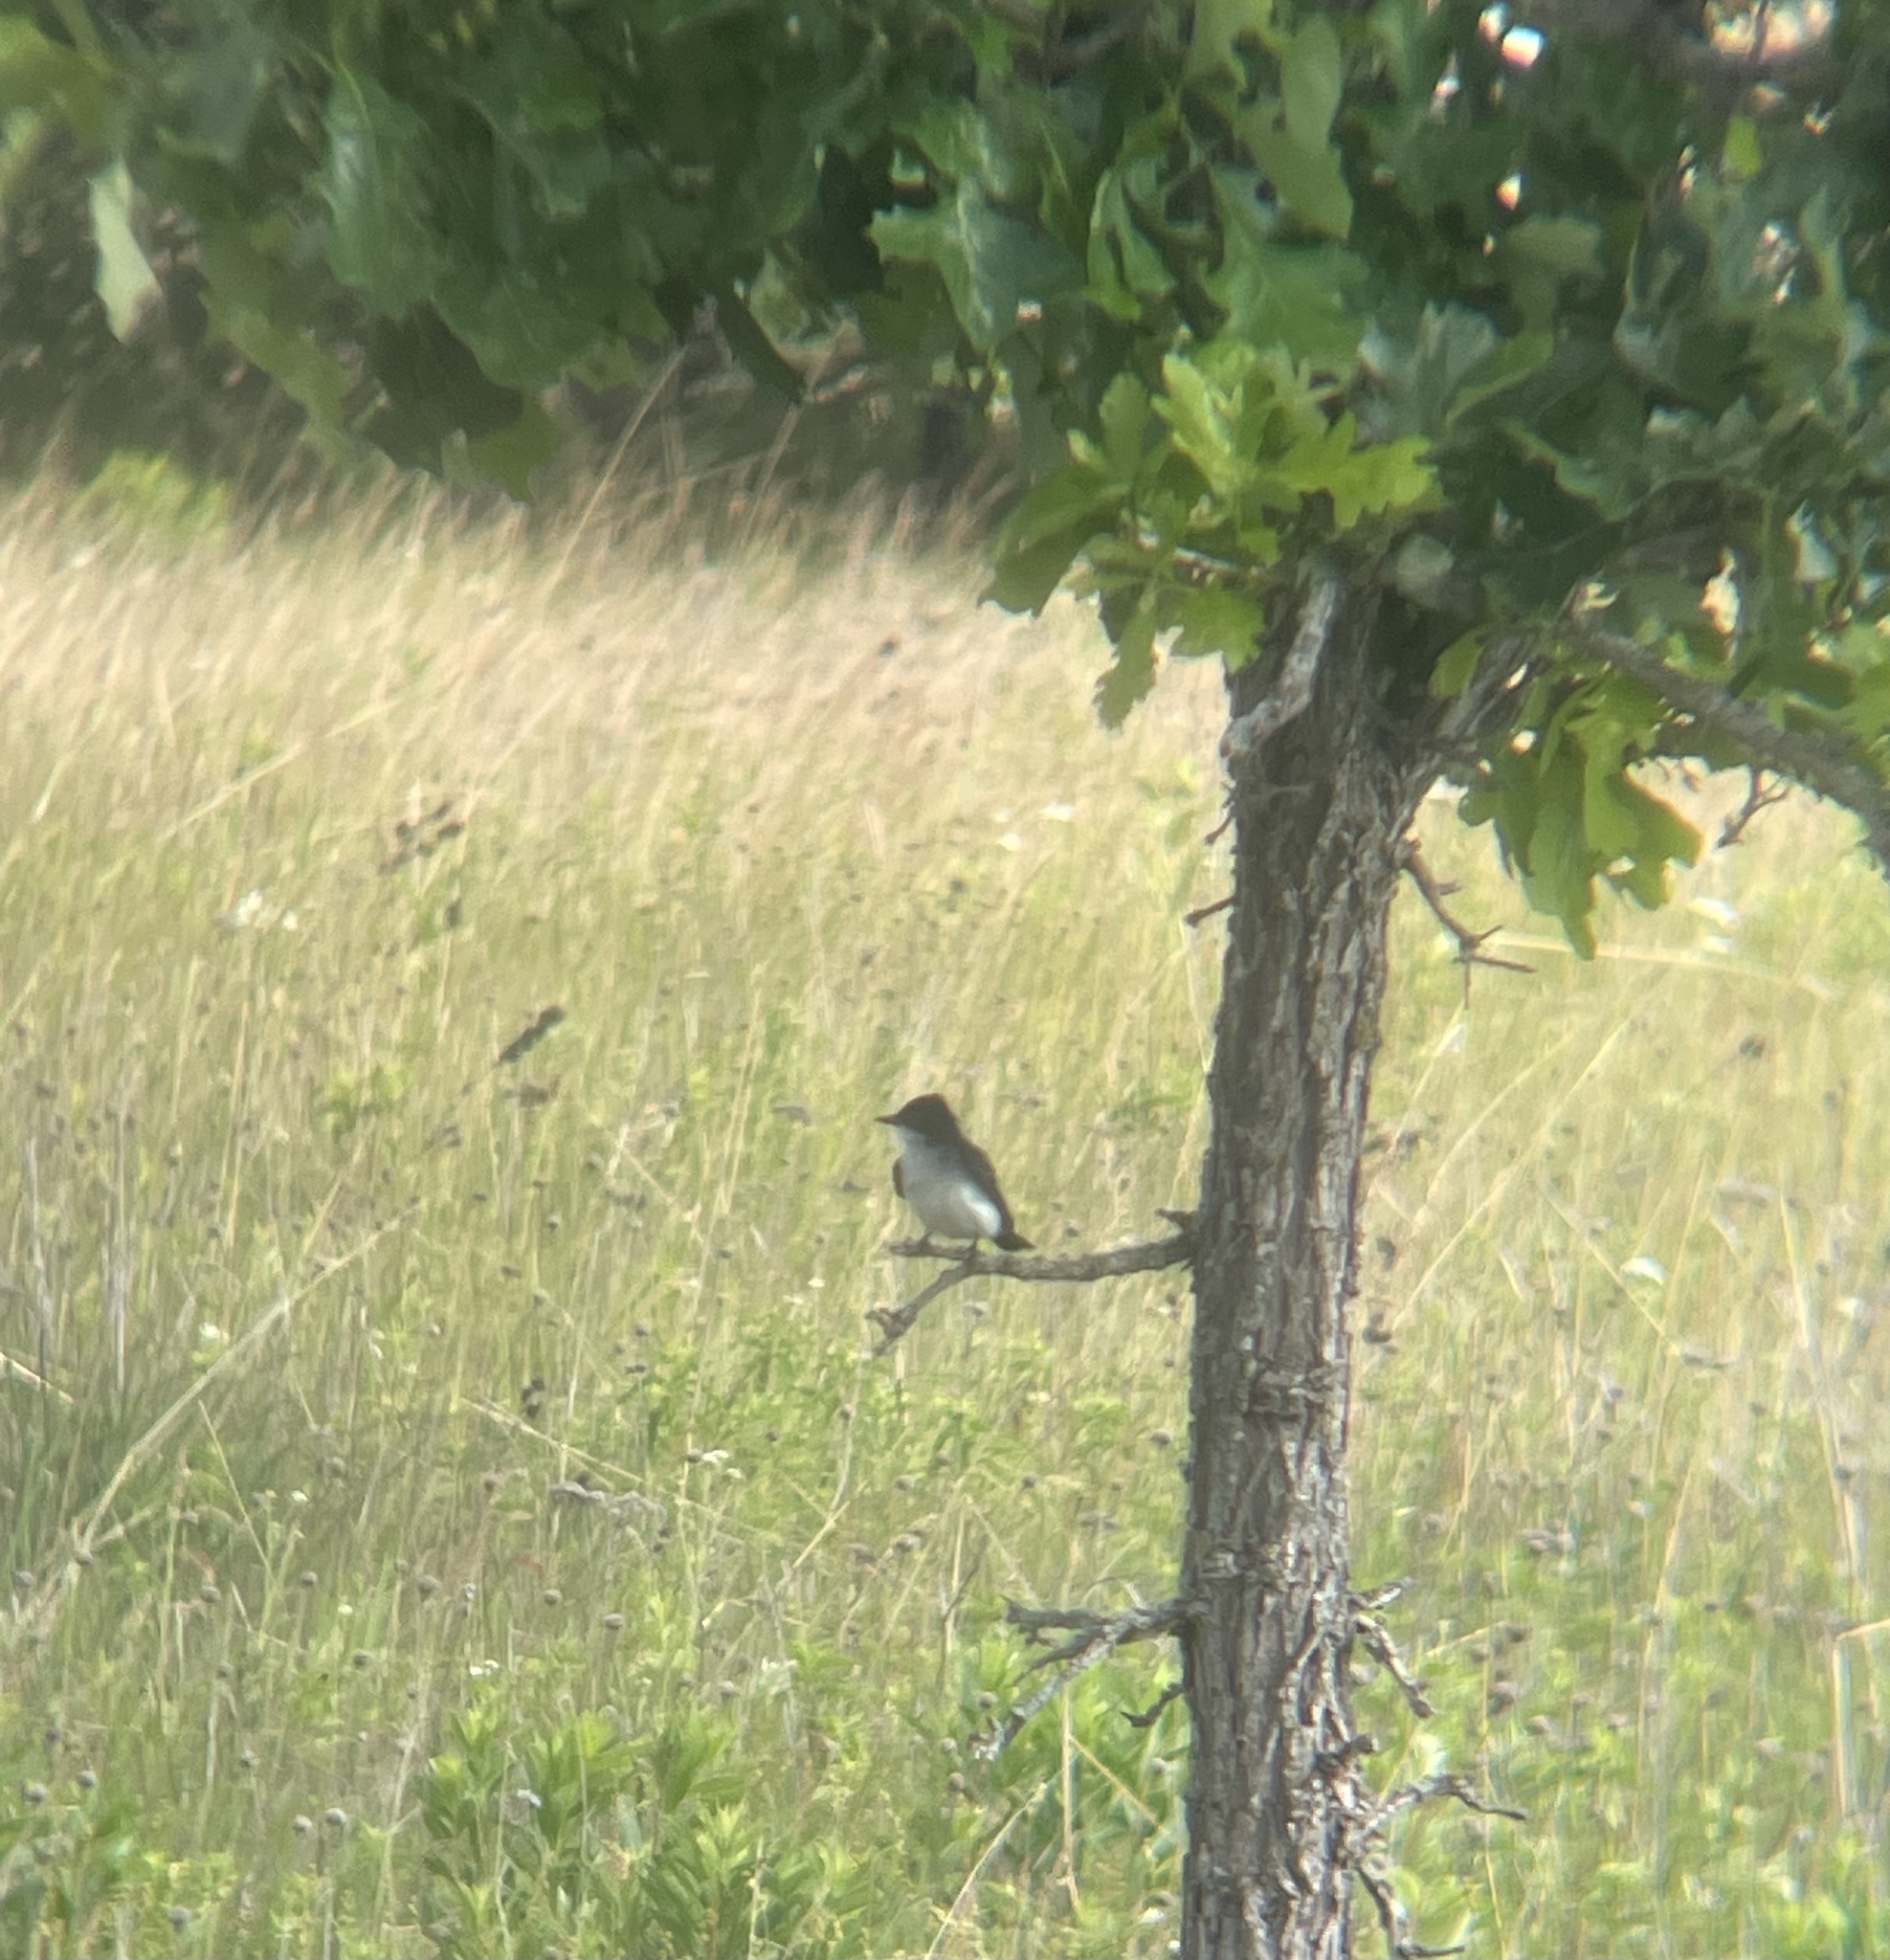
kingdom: Animalia
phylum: Chordata
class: Aves
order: Passeriformes
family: Tyrannidae
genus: Tyrannus
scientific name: Tyrannus tyrannus
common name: Eastern kingbird
